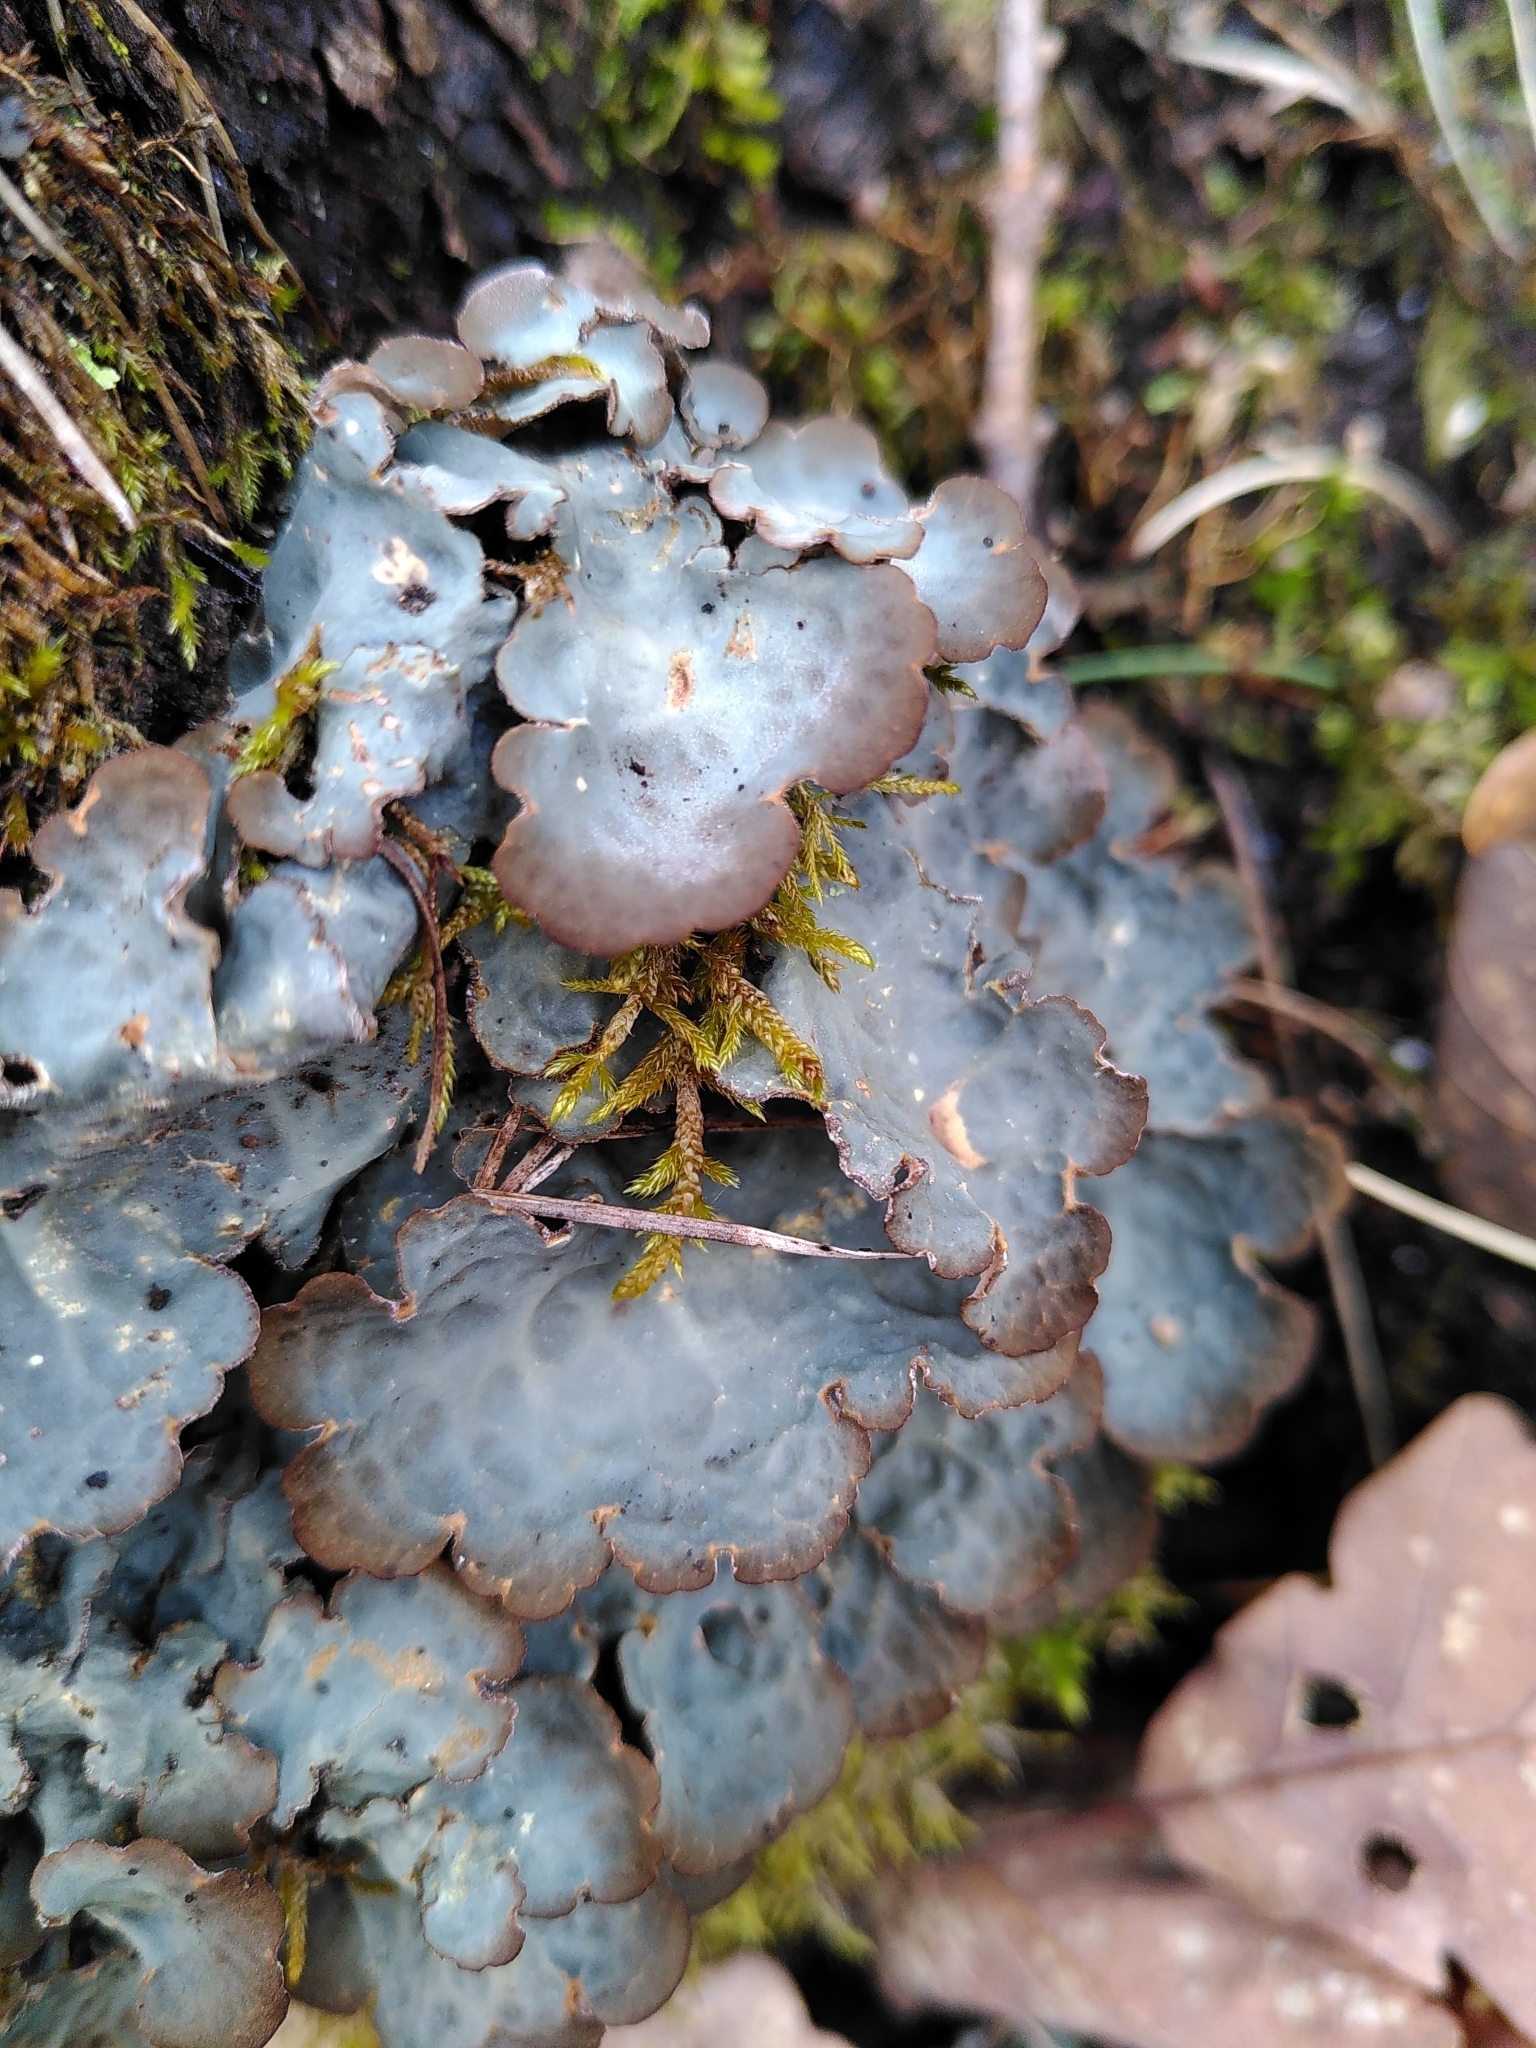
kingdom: Fungi
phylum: Ascomycota
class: Lecanoromycetes
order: Peltigerales
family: Lobariaceae
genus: Lobarina
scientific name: Lobarina scrobiculata
